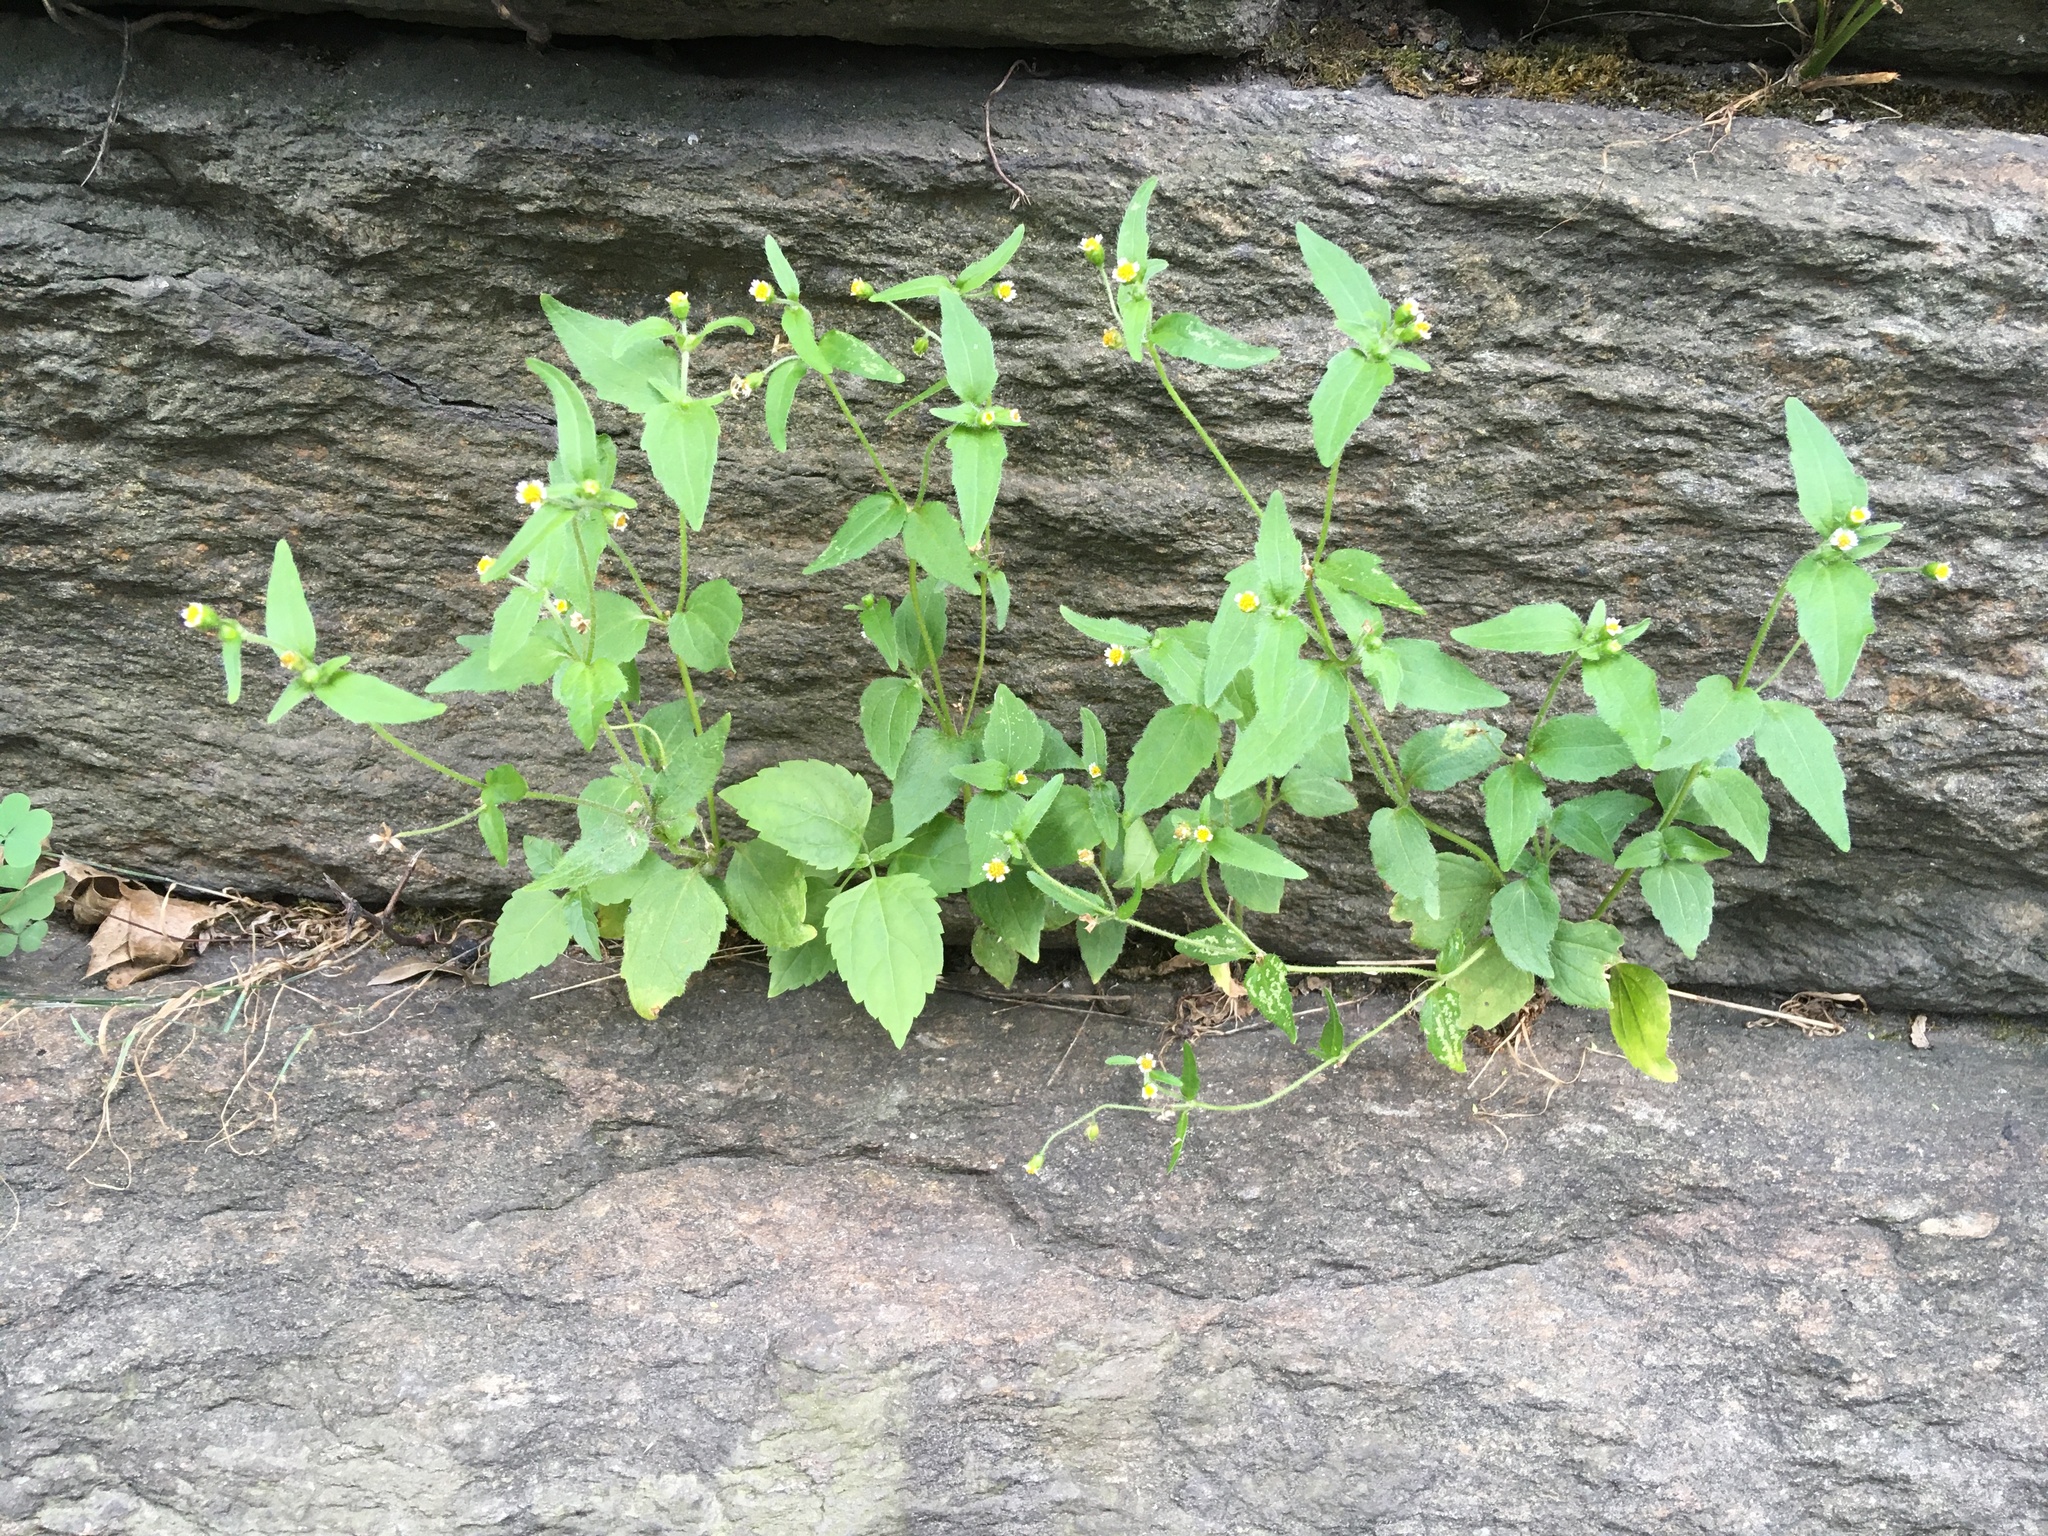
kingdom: Plantae
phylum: Tracheophyta
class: Magnoliopsida
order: Asterales
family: Asteraceae
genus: Galinsoga
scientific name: Galinsoga quadriradiata
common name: Shaggy soldier
